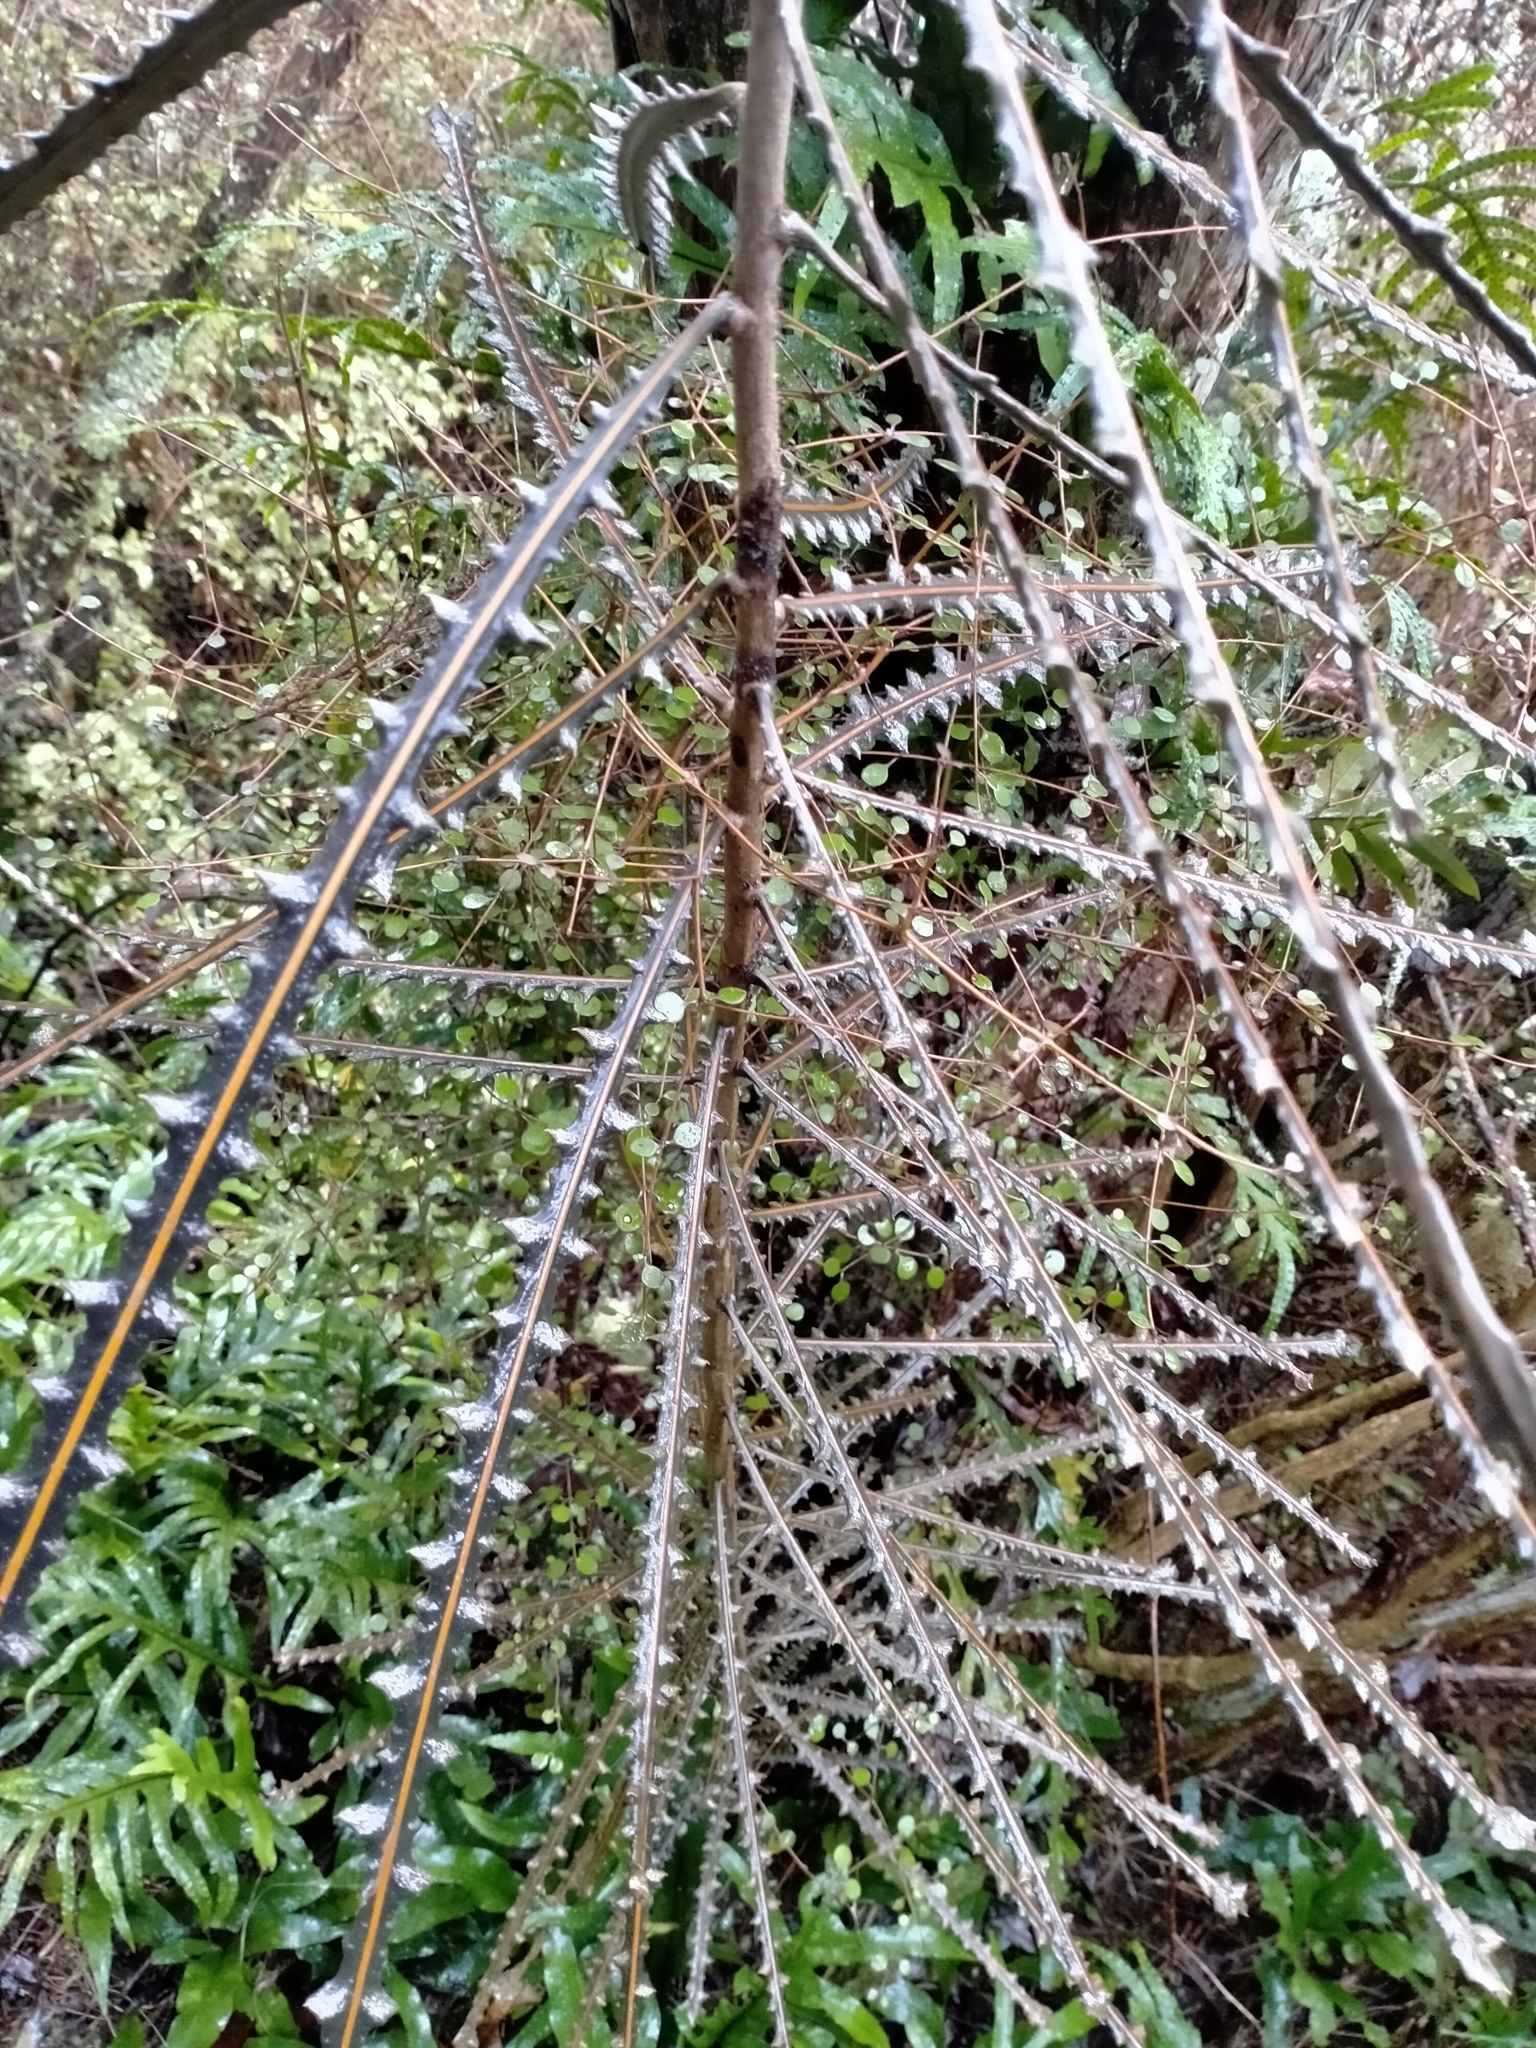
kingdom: Plantae
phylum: Tracheophyta
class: Magnoliopsida
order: Apiales
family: Araliaceae
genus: Pseudopanax
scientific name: Pseudopanax ferox
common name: Fierce lancewood
